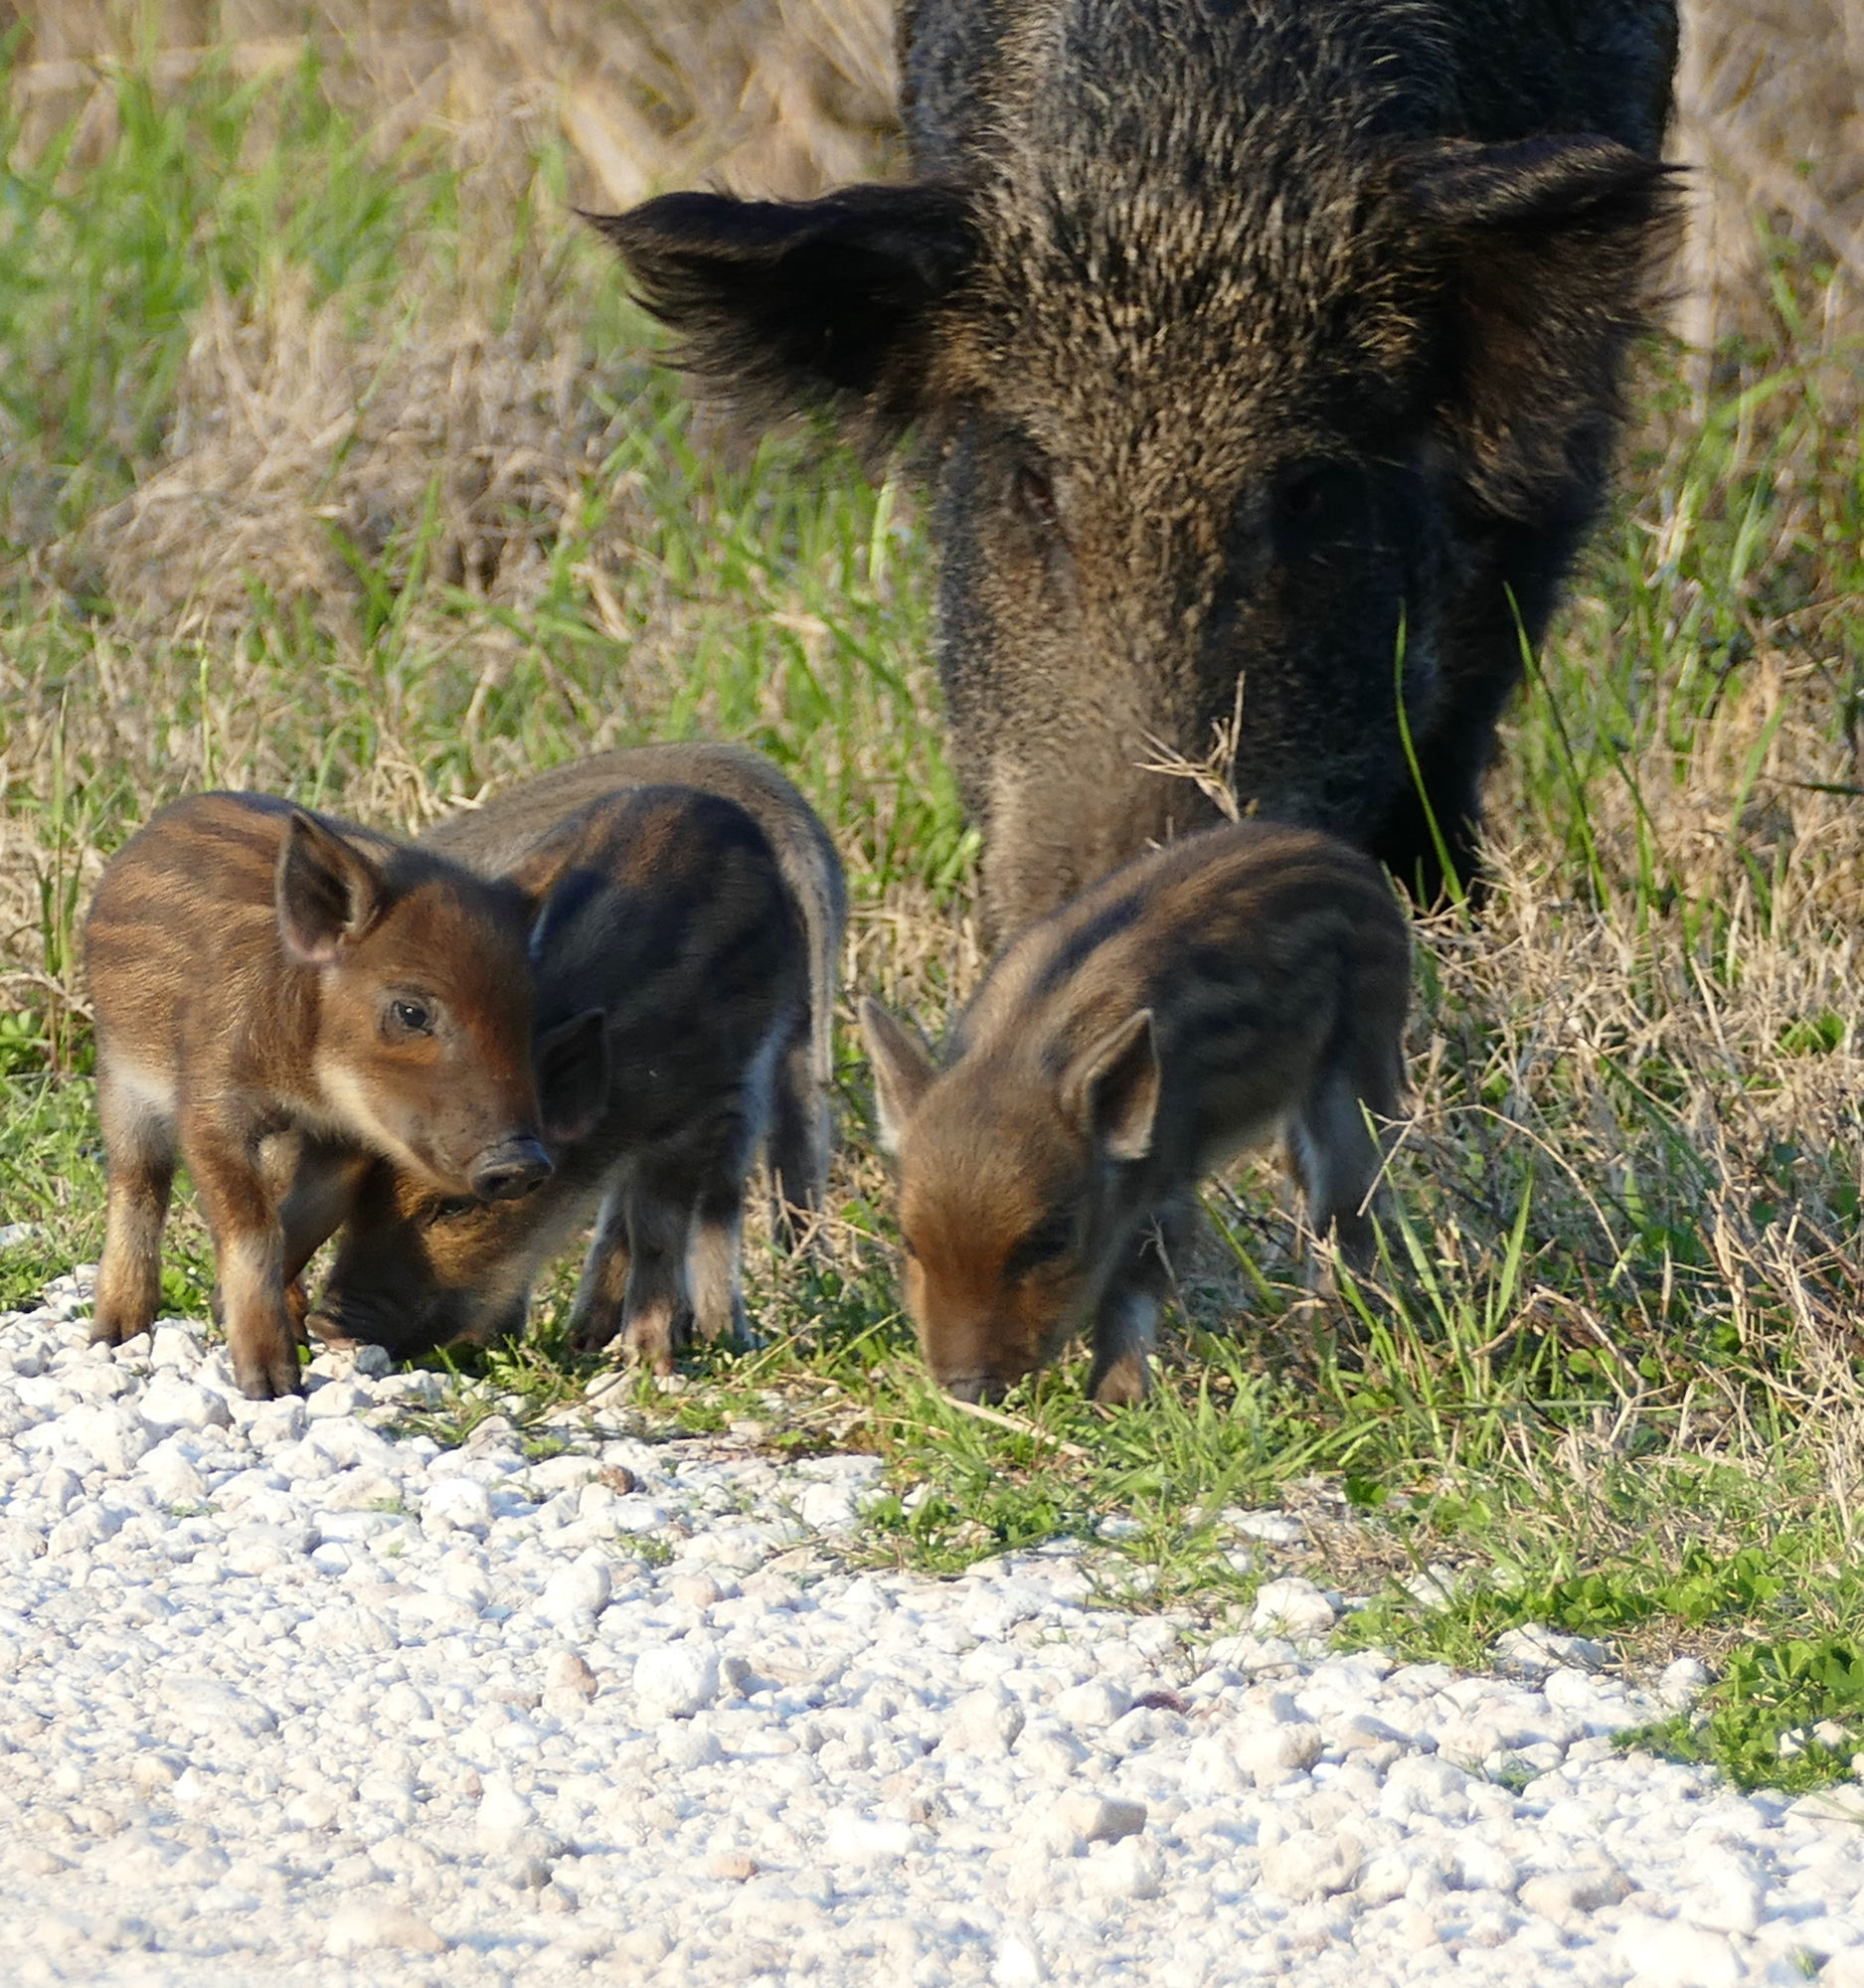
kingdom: Animalia
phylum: Chordata
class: Mammalia
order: Artiodactyla
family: Suidae
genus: Sus
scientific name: Sus scrofa
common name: Wild boar
